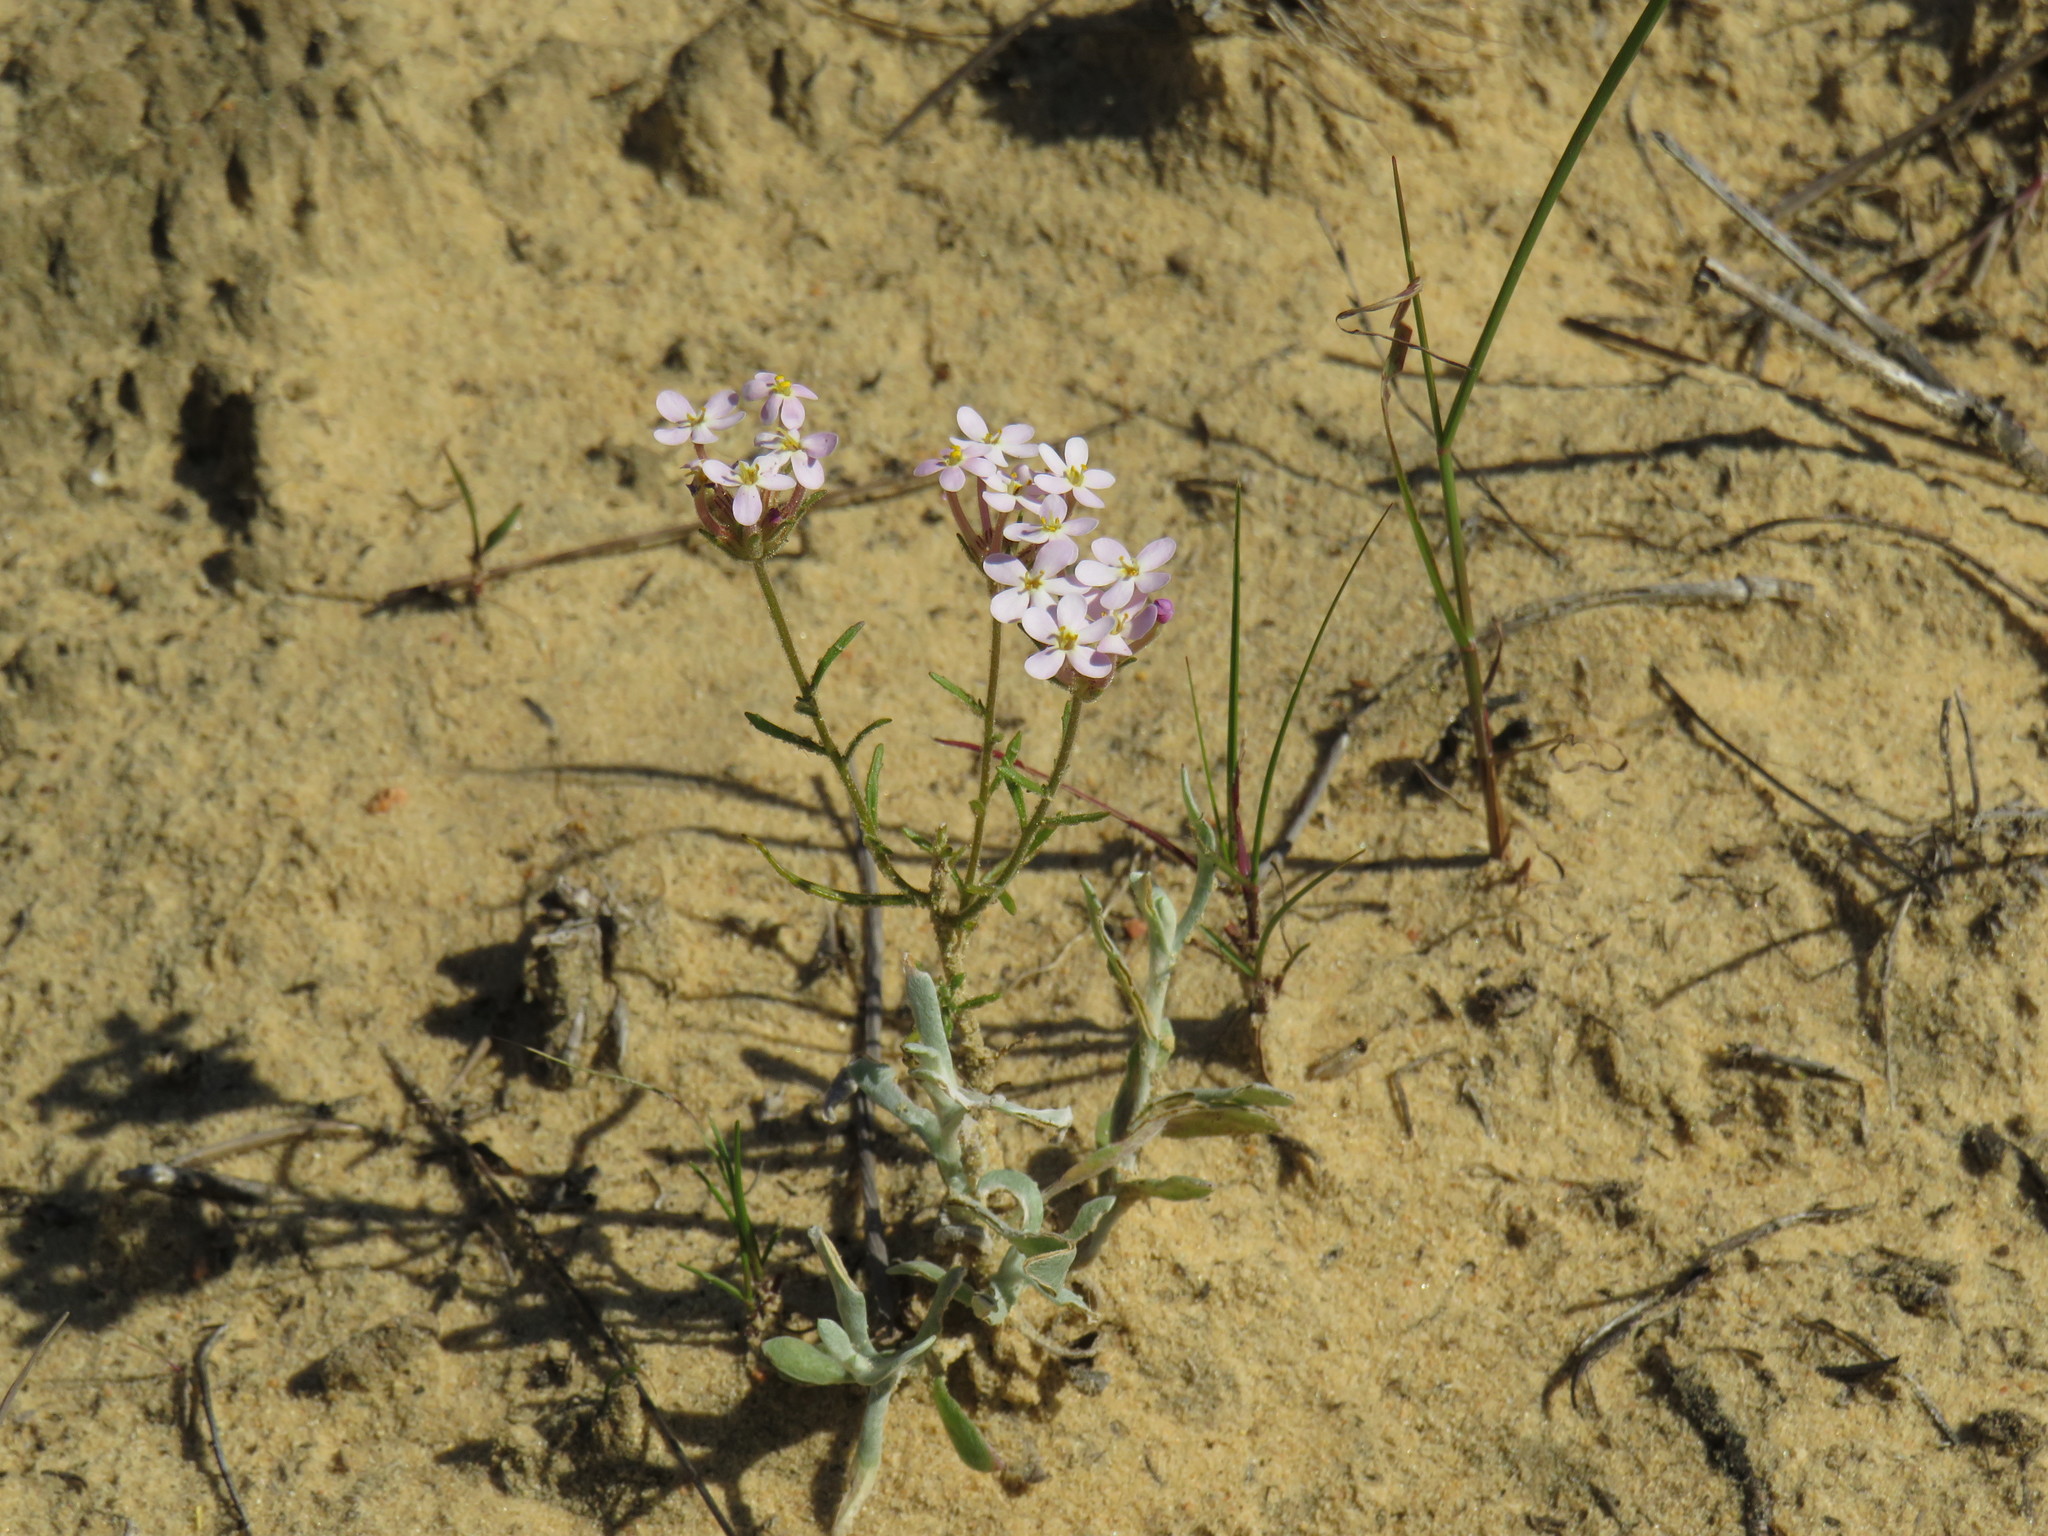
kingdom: Plantae
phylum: Tracheophyta
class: Magnoliopsida
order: Lamiales
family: Scrophulariaceae
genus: Polycarena
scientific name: Polycarena lilacina
